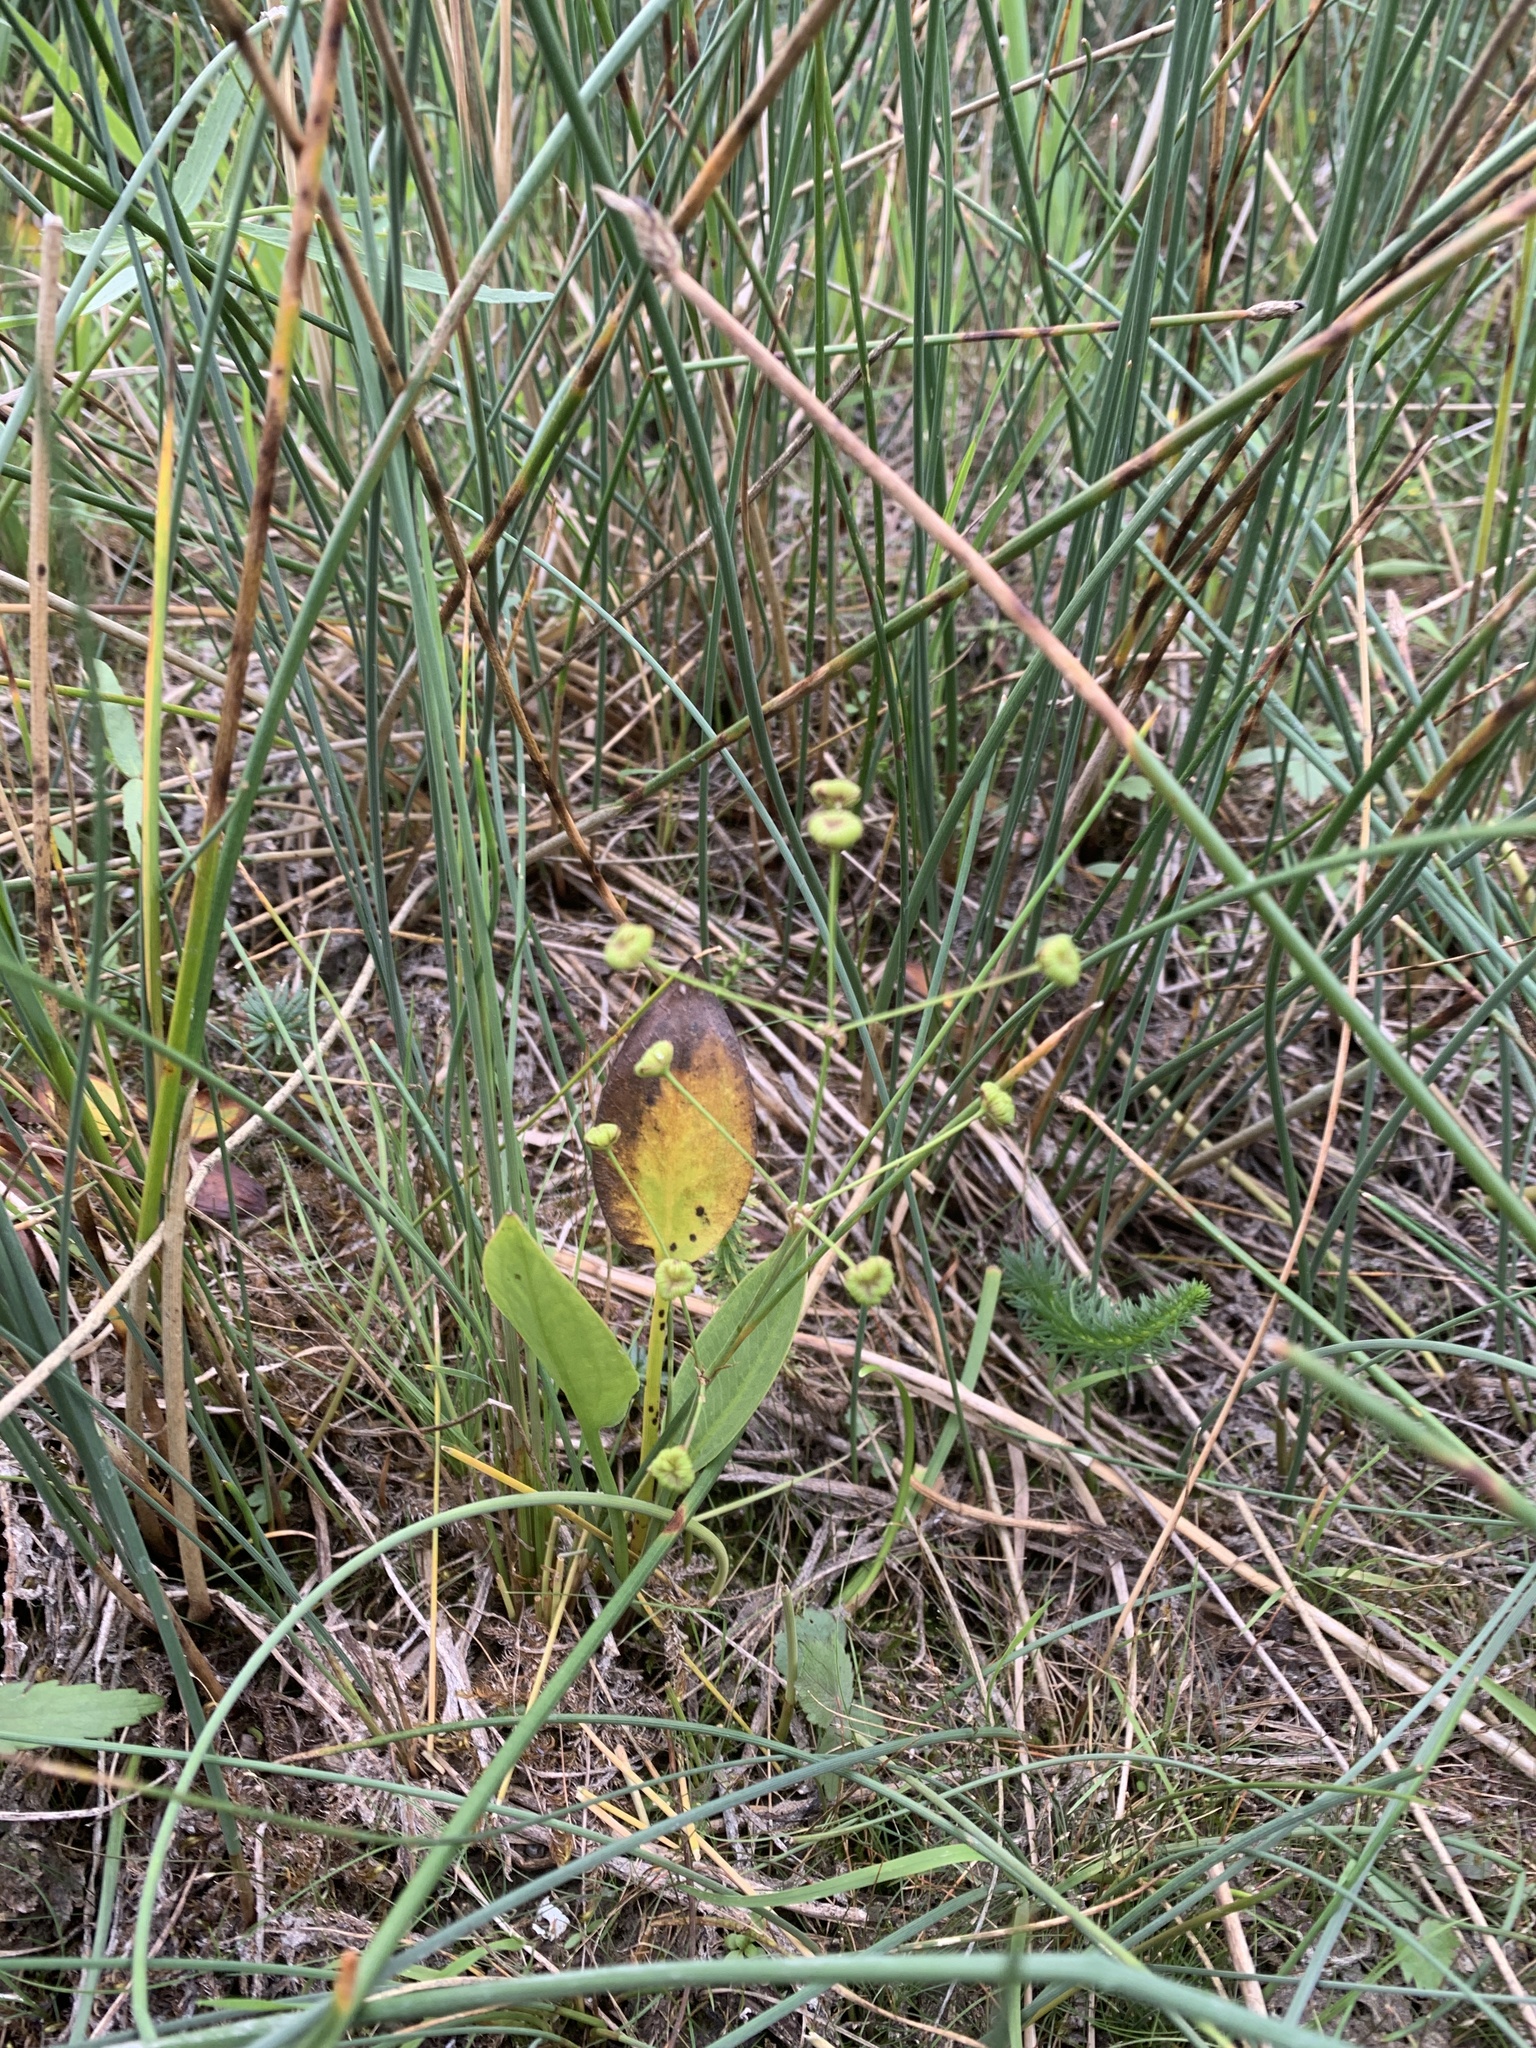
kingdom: Plantae
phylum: Tracheophyta
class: Liliopsida
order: Alismatales
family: Alismataceae
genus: Alisma
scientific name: Alisma triviale
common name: Northern water-plantain
